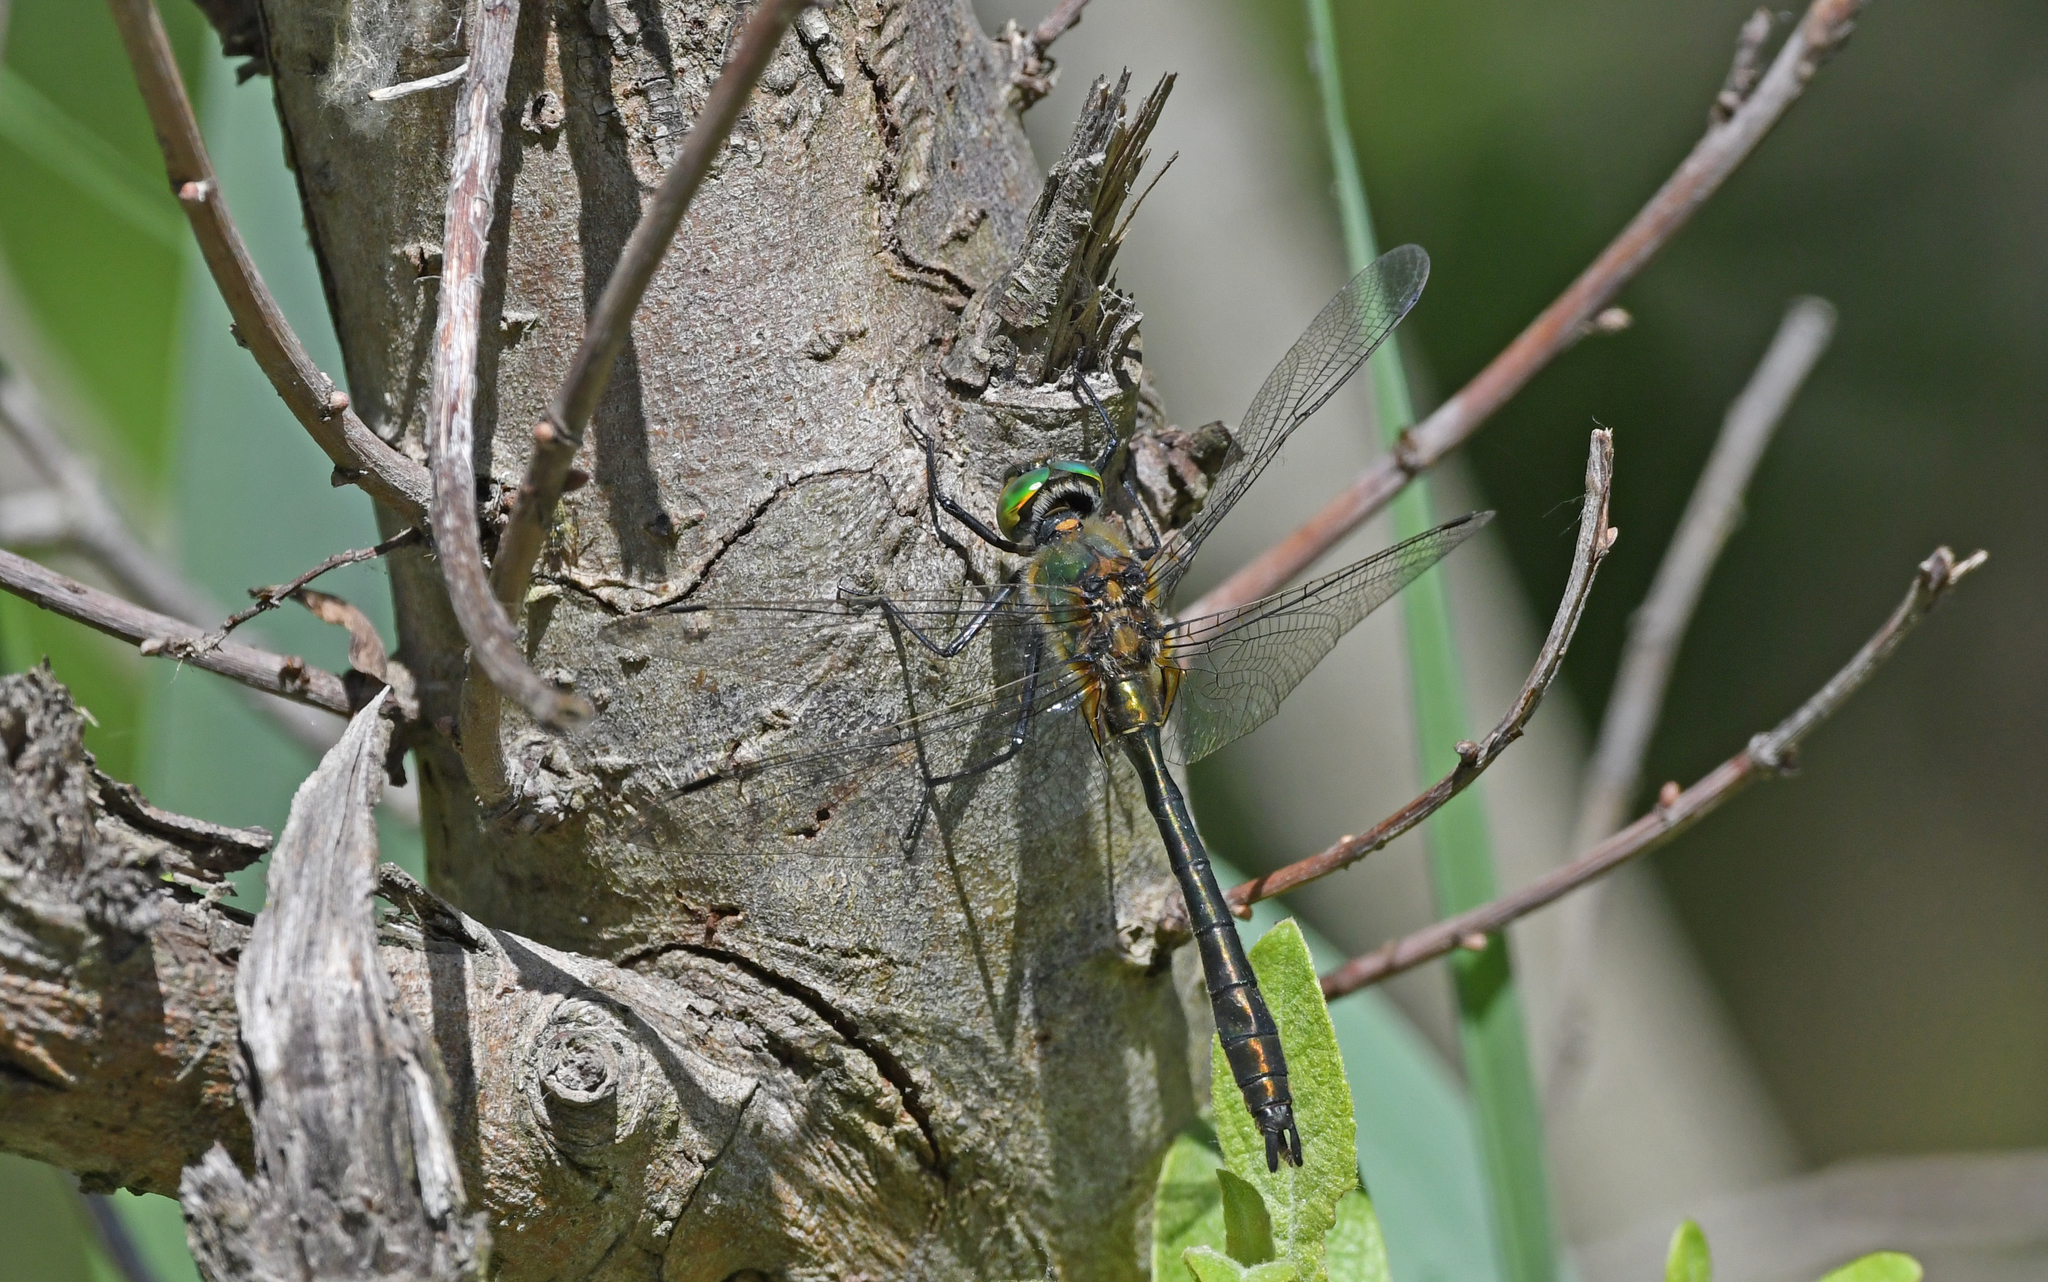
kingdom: Animalia
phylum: Arthropoda
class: Insecta
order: Odonata
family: Corduliidae
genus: Cordulia
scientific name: Cordulia aenea
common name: Downy emerald
